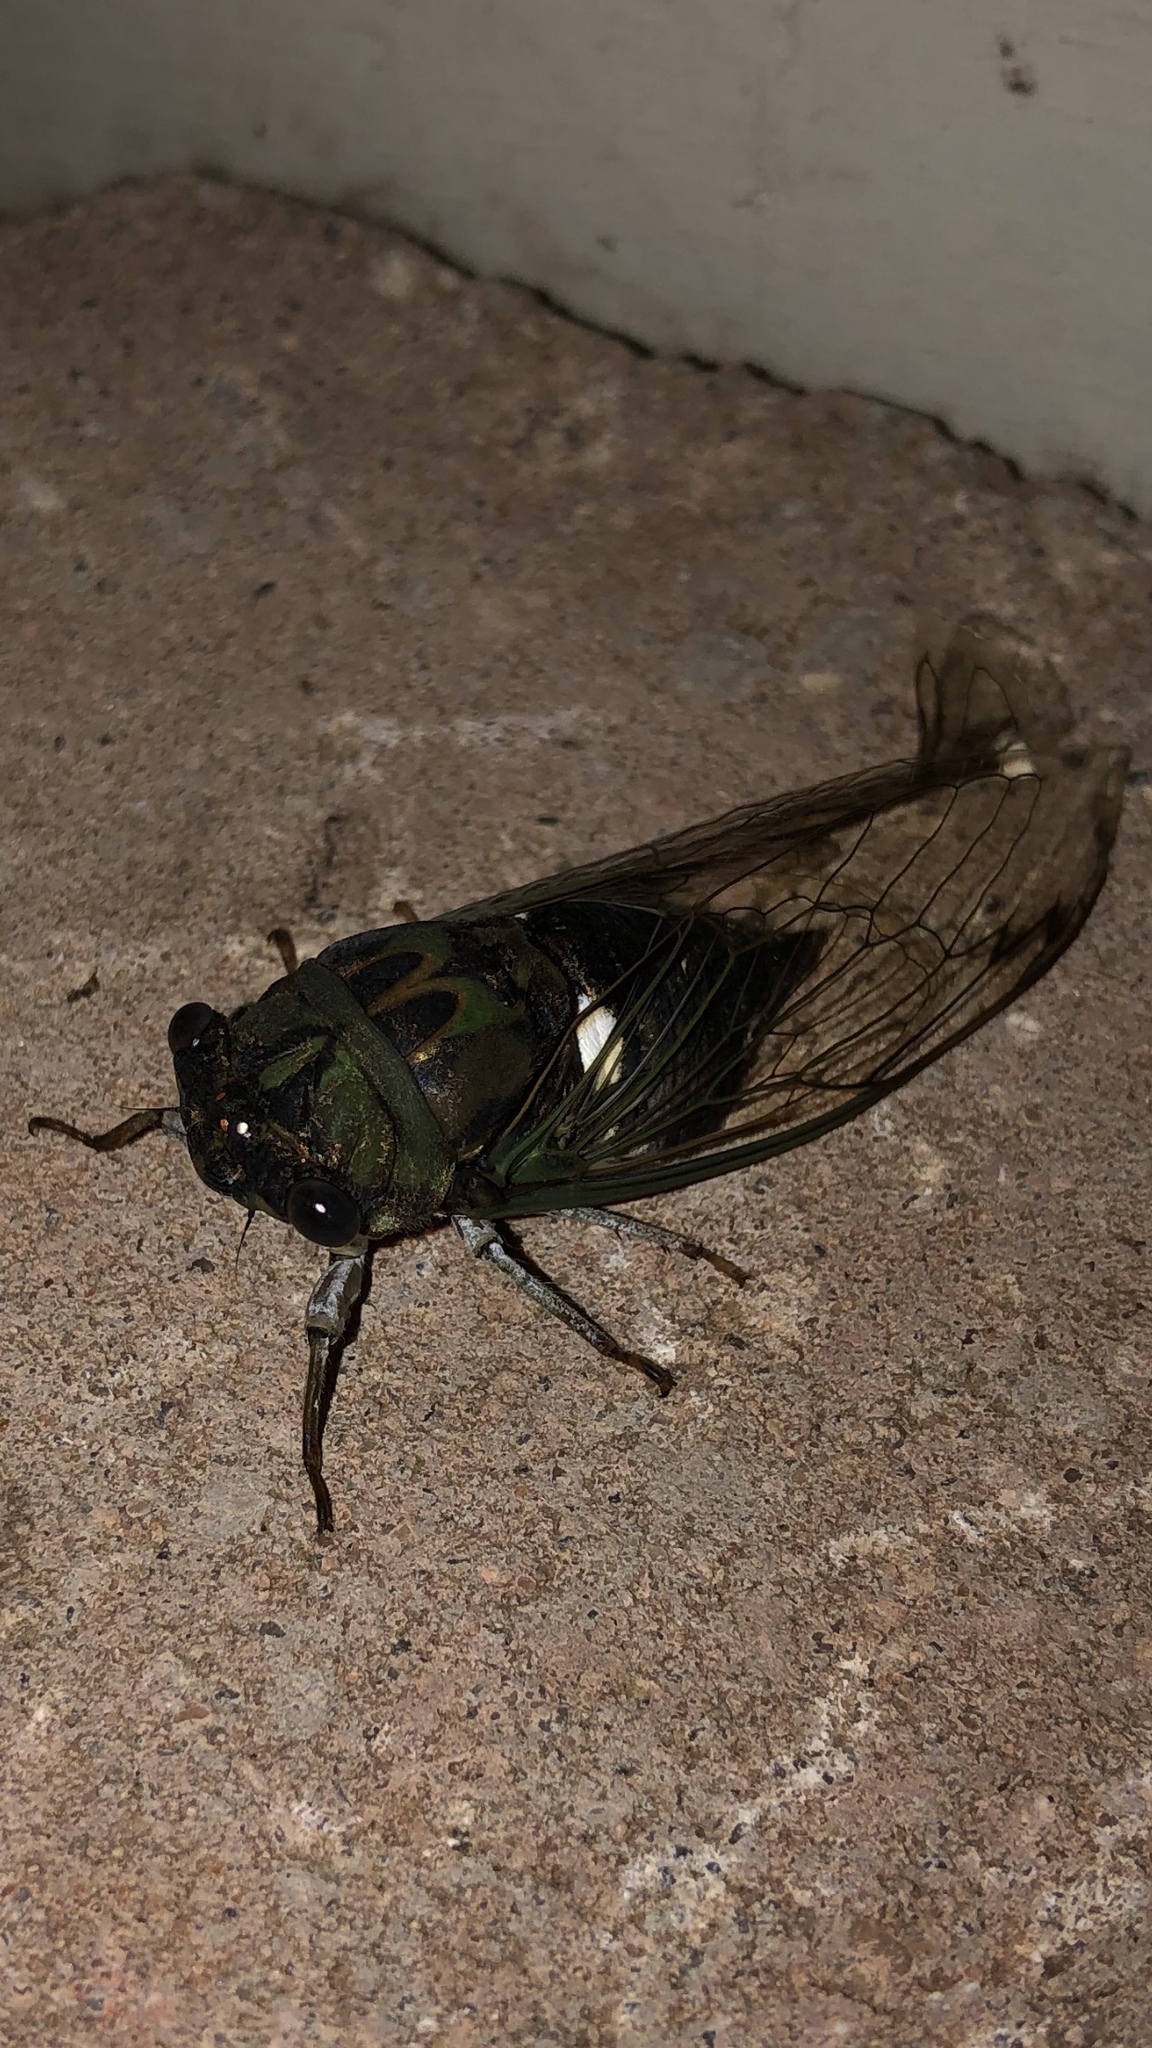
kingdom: Animalia
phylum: Arthropoda
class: Insecta
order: Hemiptera
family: Cicadidae
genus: Neotibicen
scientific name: Neotibicen pruinosus
